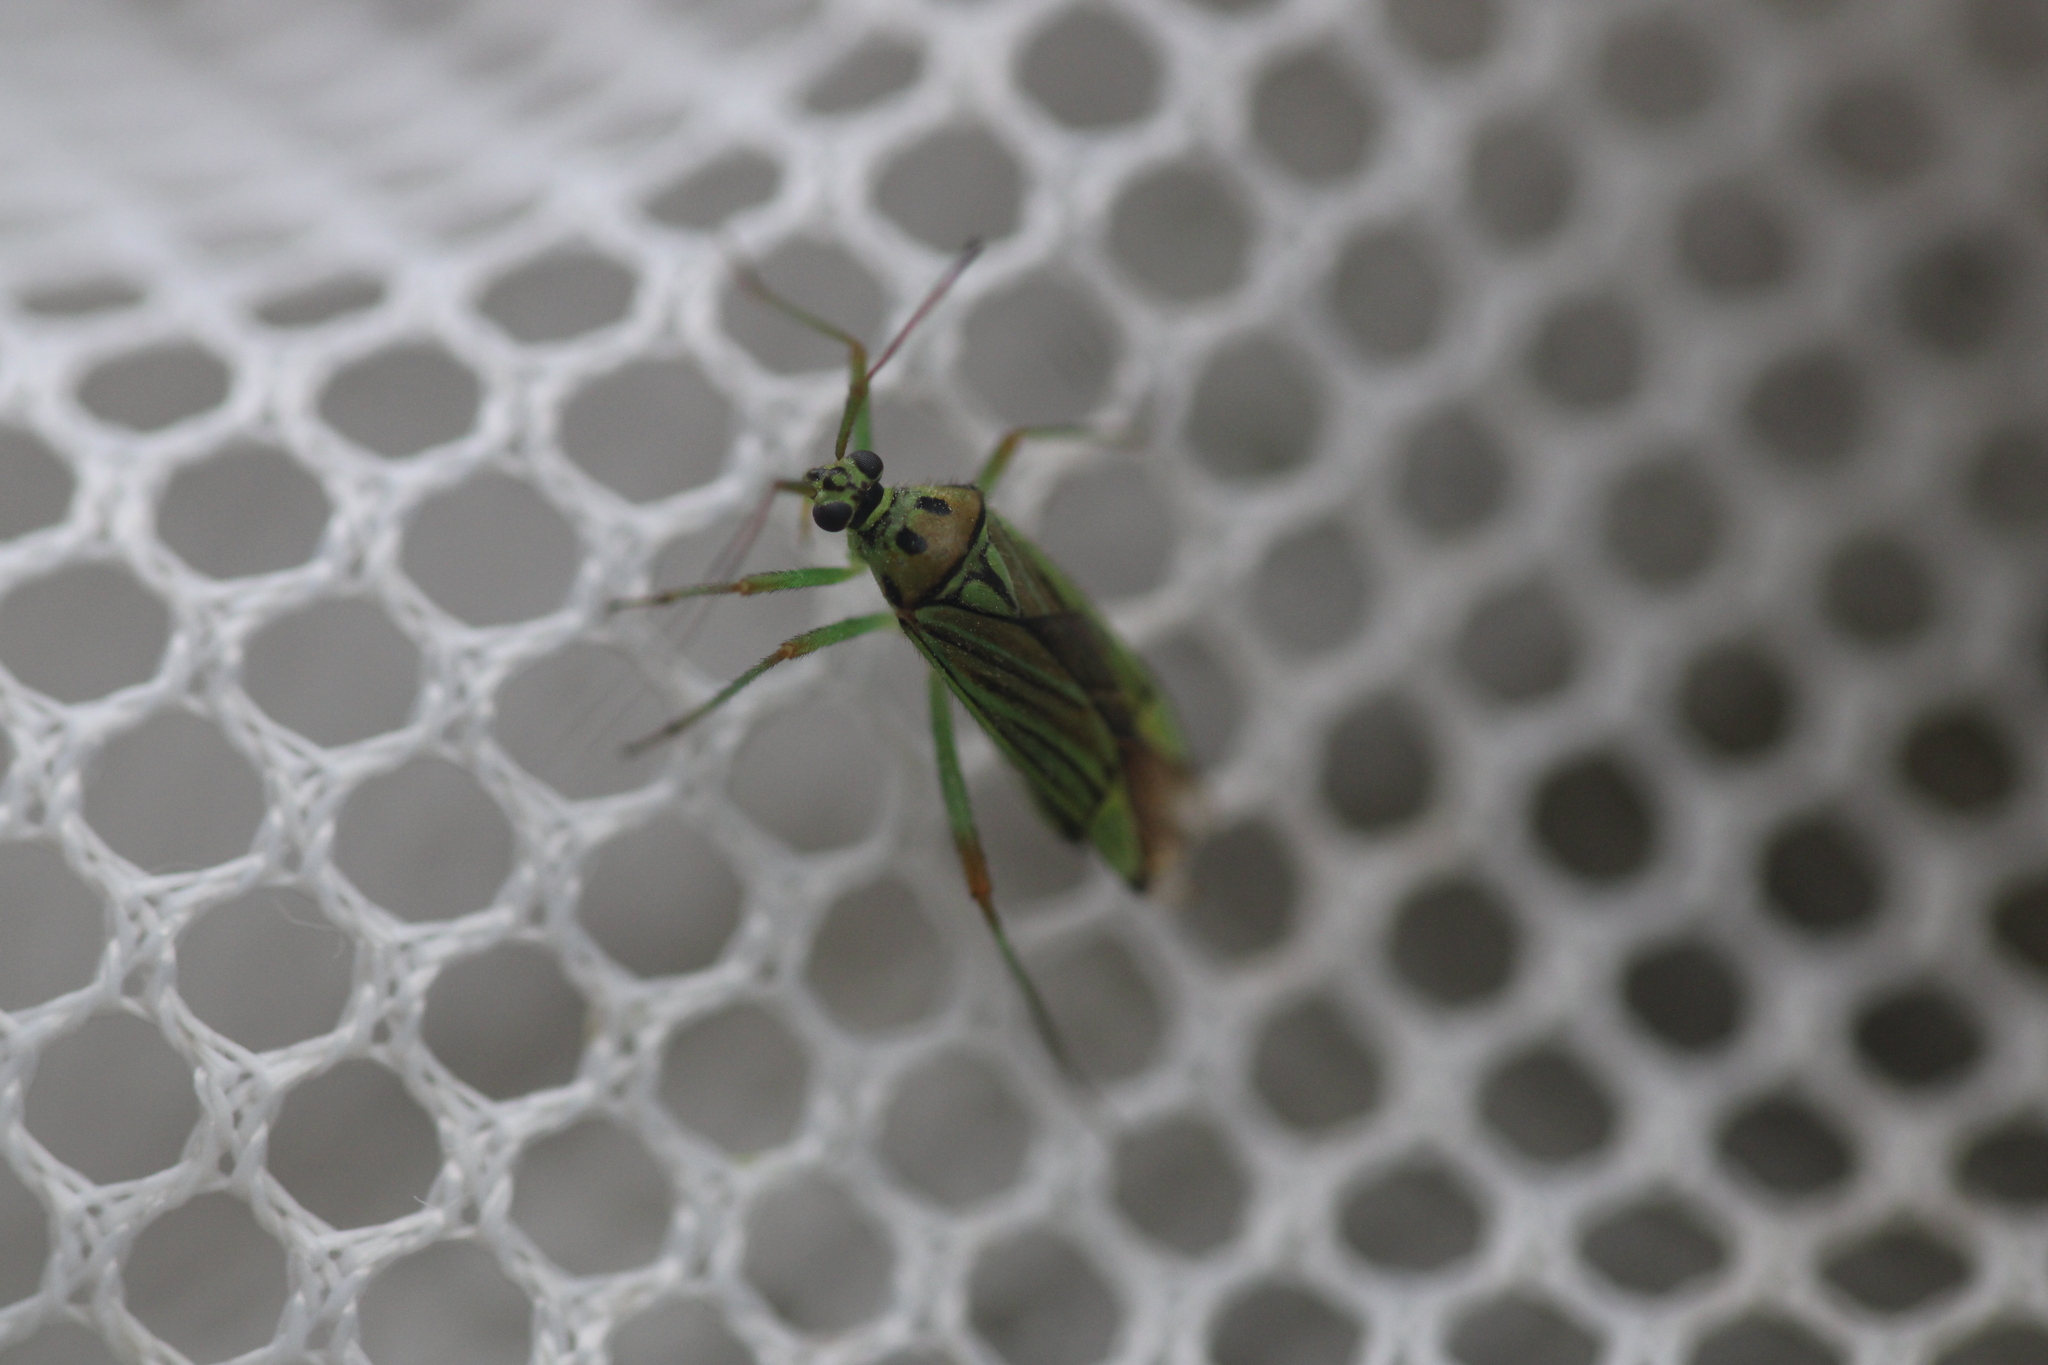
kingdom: Animalia
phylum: Arthropoda
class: Insecta
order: Hemiptera
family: Miridae
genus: Mermitelocerus
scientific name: Mermitelocerus schmidtii
